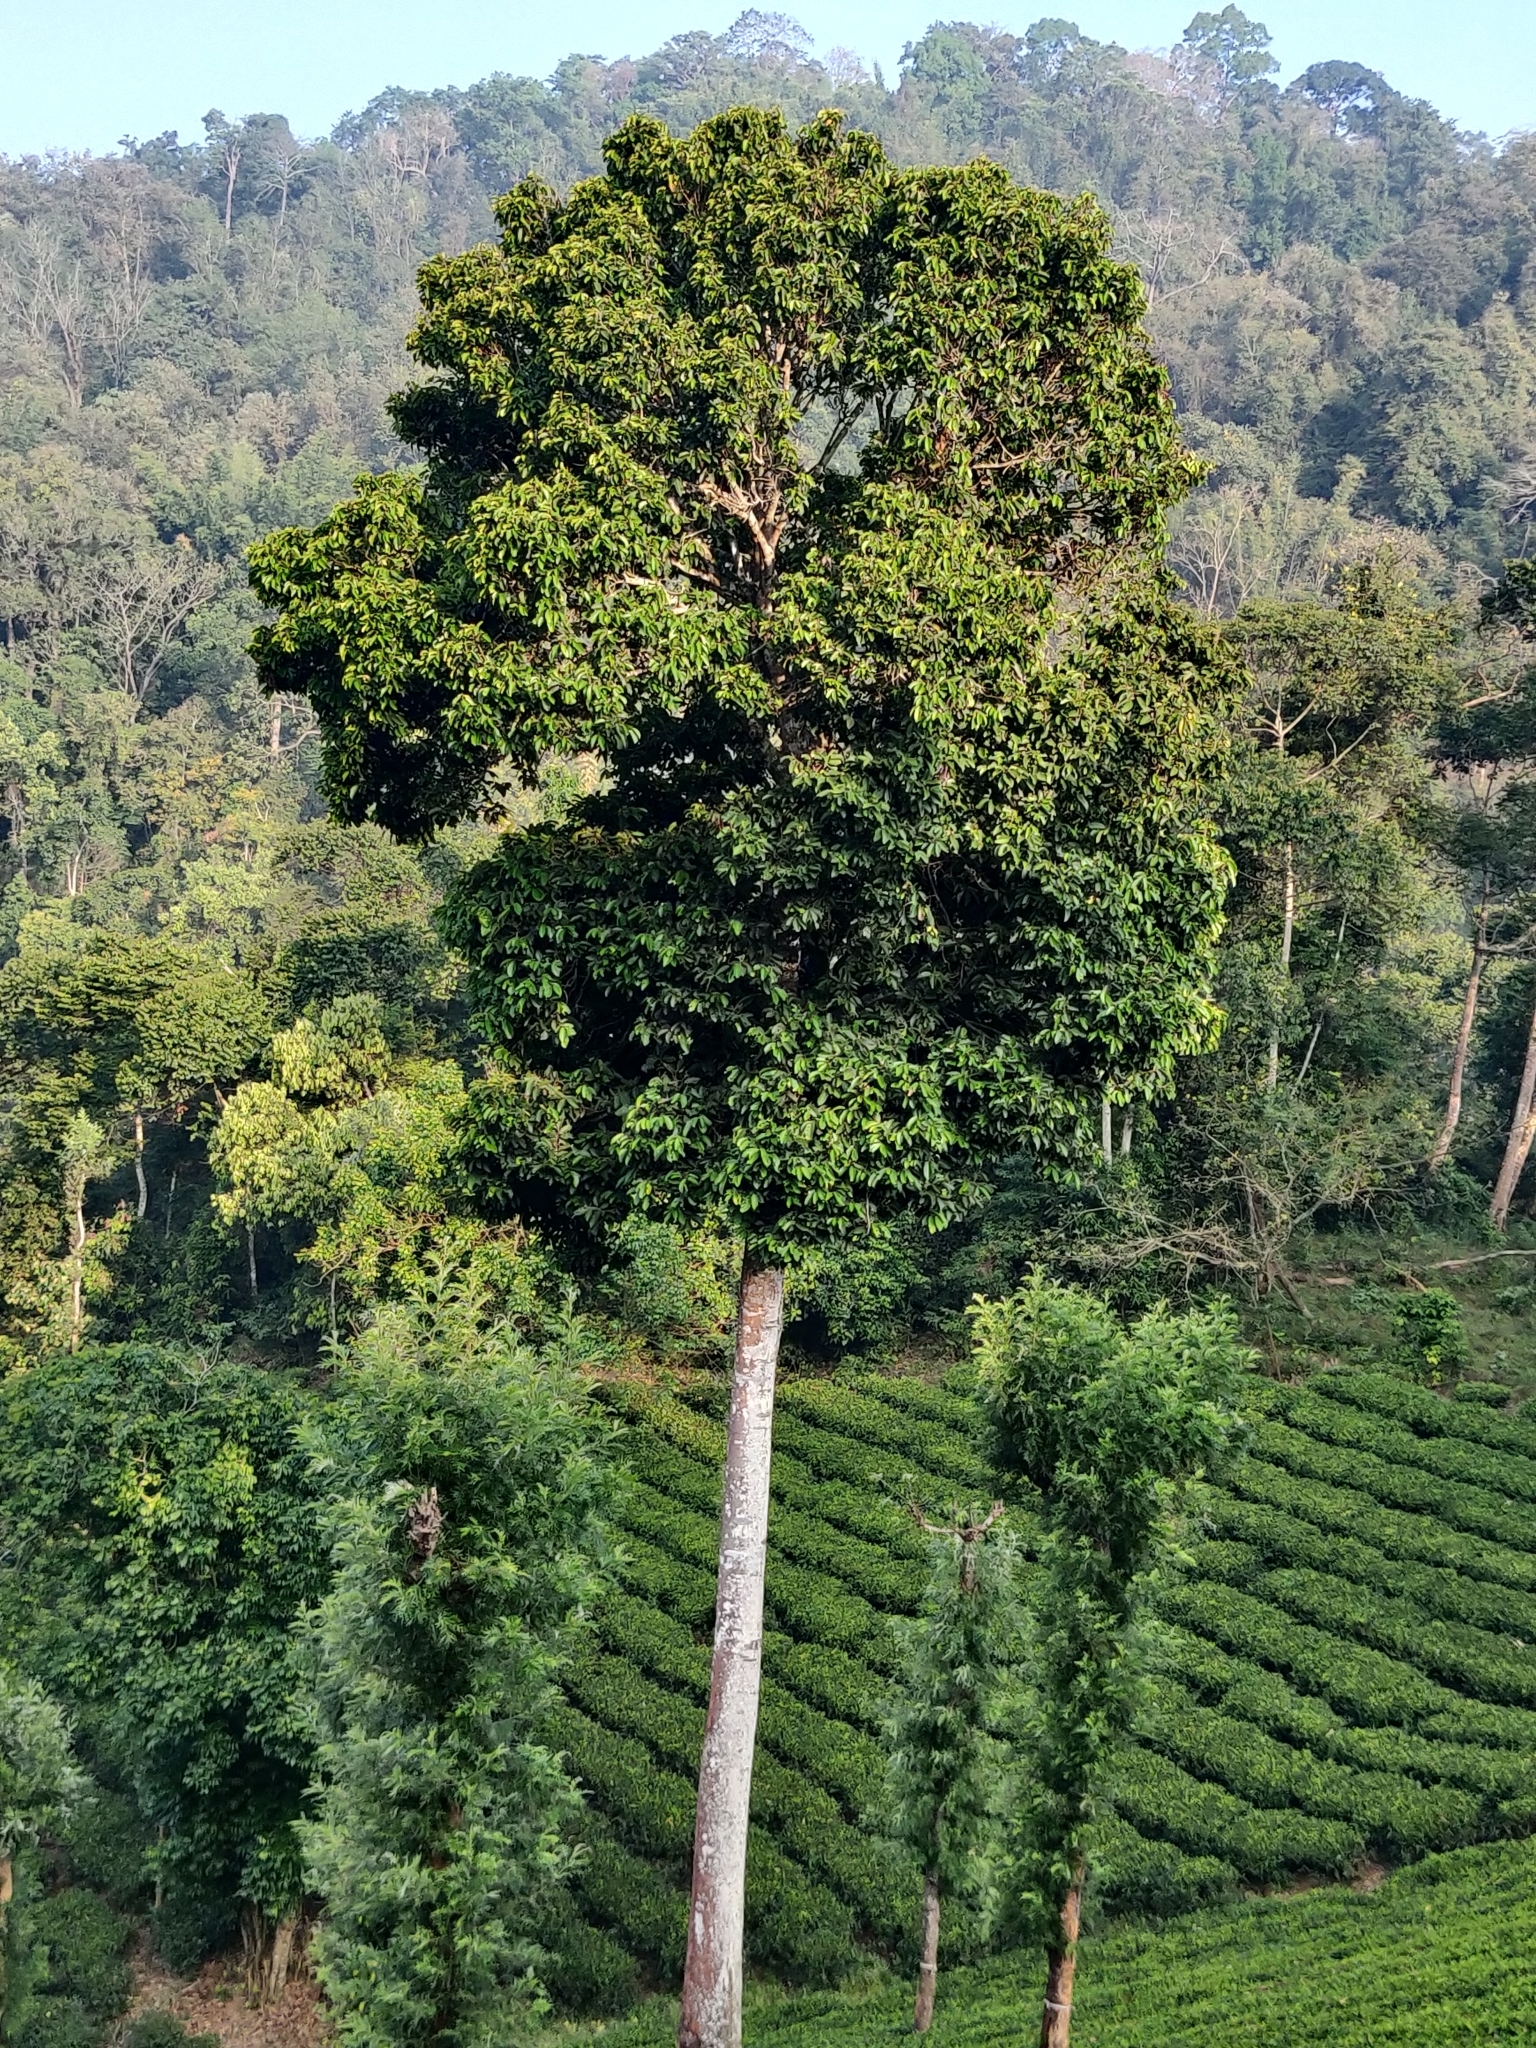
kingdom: Plantae
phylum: Tracheophyta
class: Magnoliopsida
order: Malvales
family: Dipterocarpaceae
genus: Vateria
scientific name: Vateria indica
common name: White dammar
